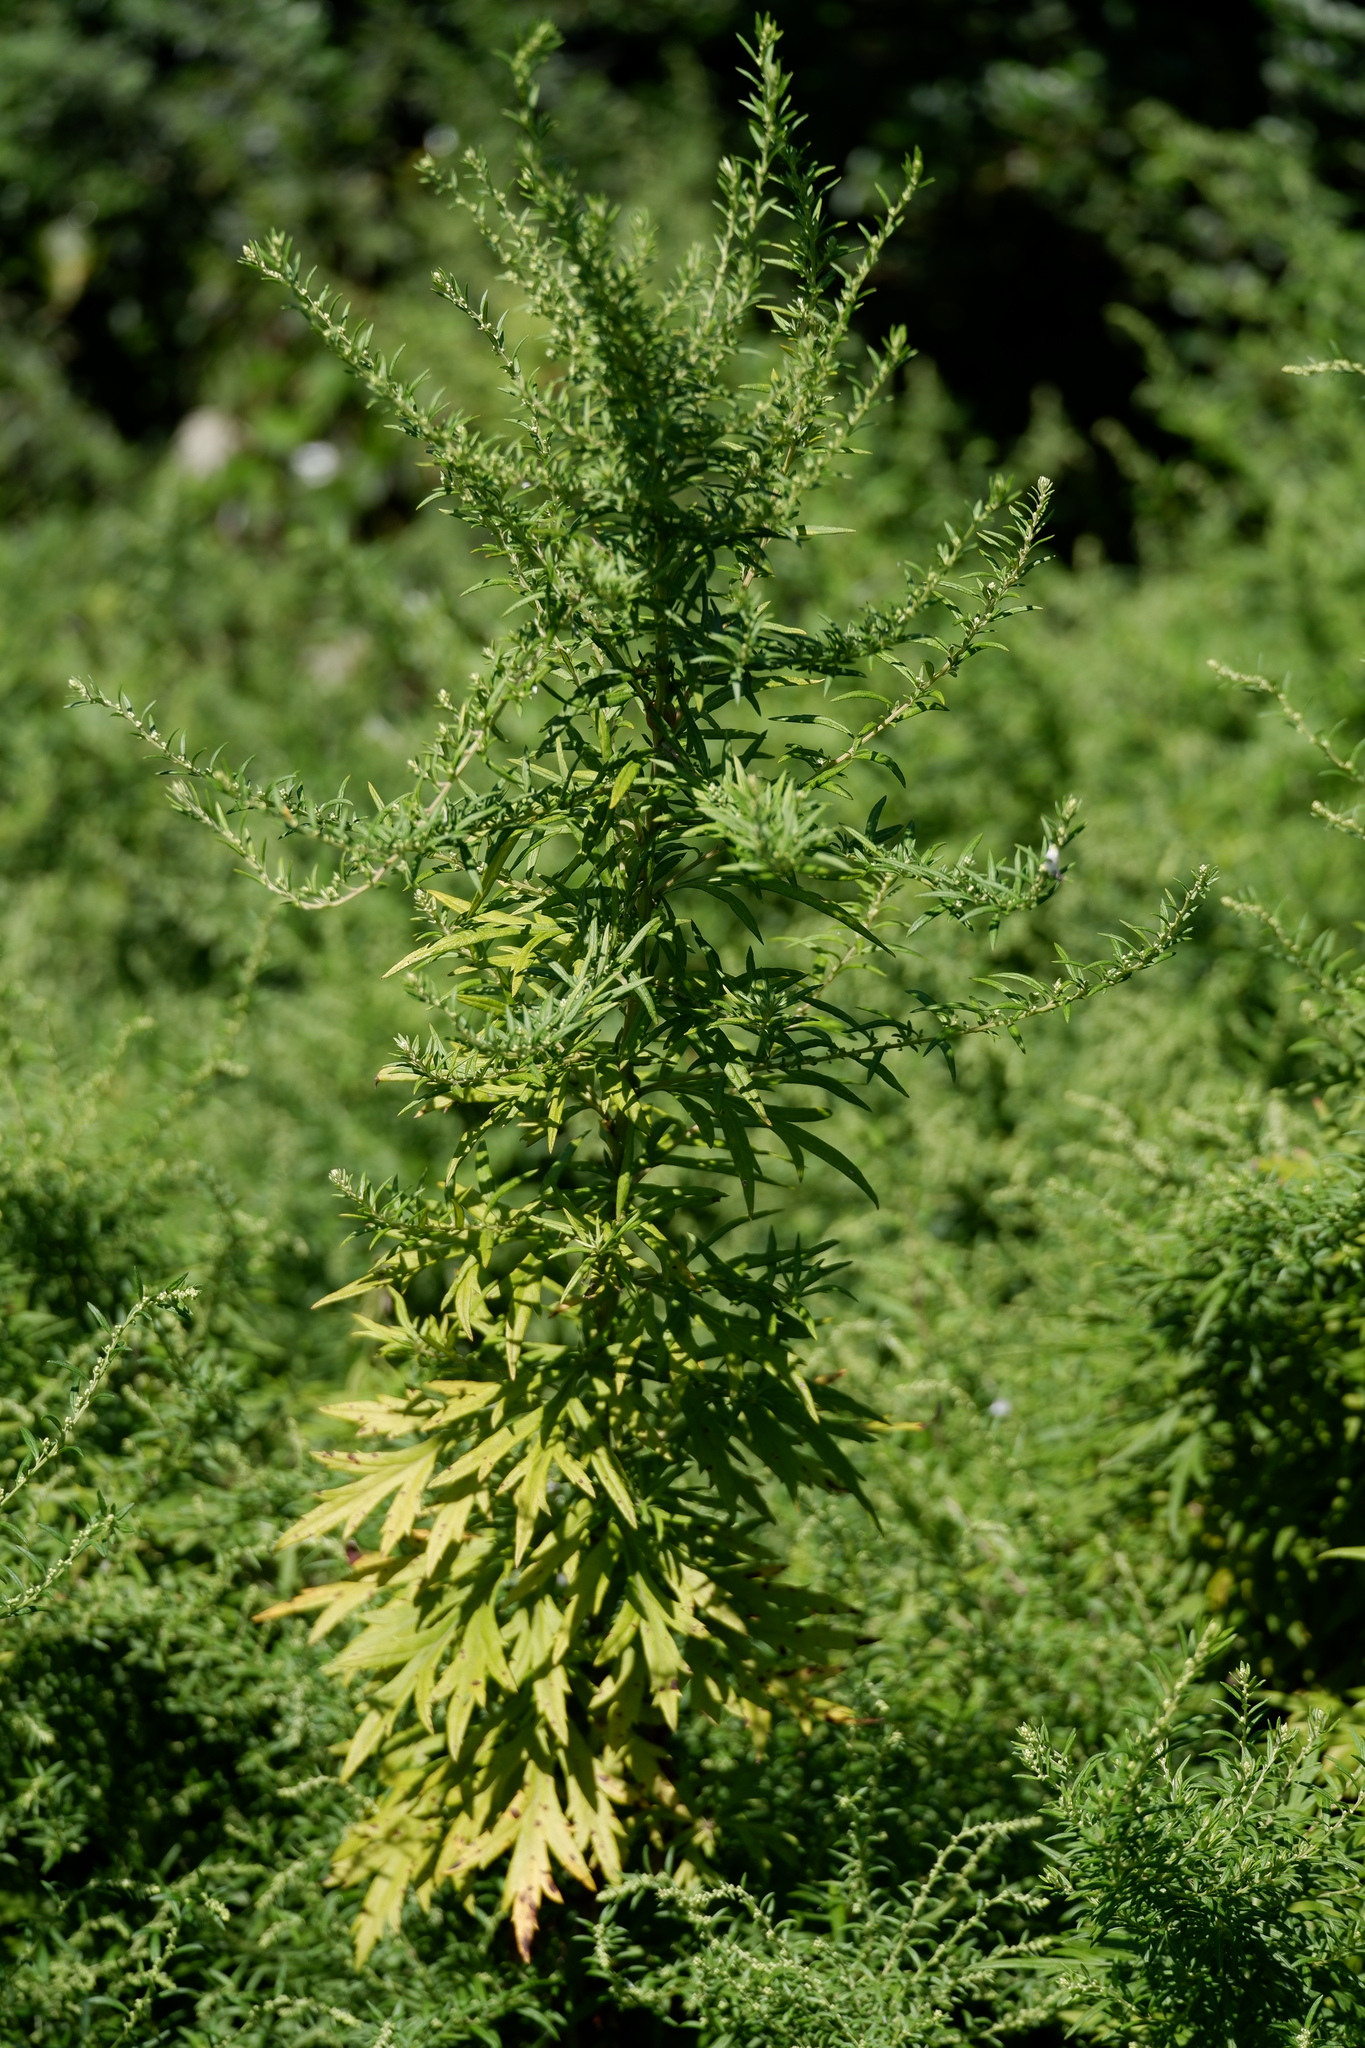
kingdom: Plantae
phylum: Tracheophyta
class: Magnoliopsida
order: Asterales
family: Asteraceae
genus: Artemisia
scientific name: Artemisia vulgaris
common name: Mugwort
